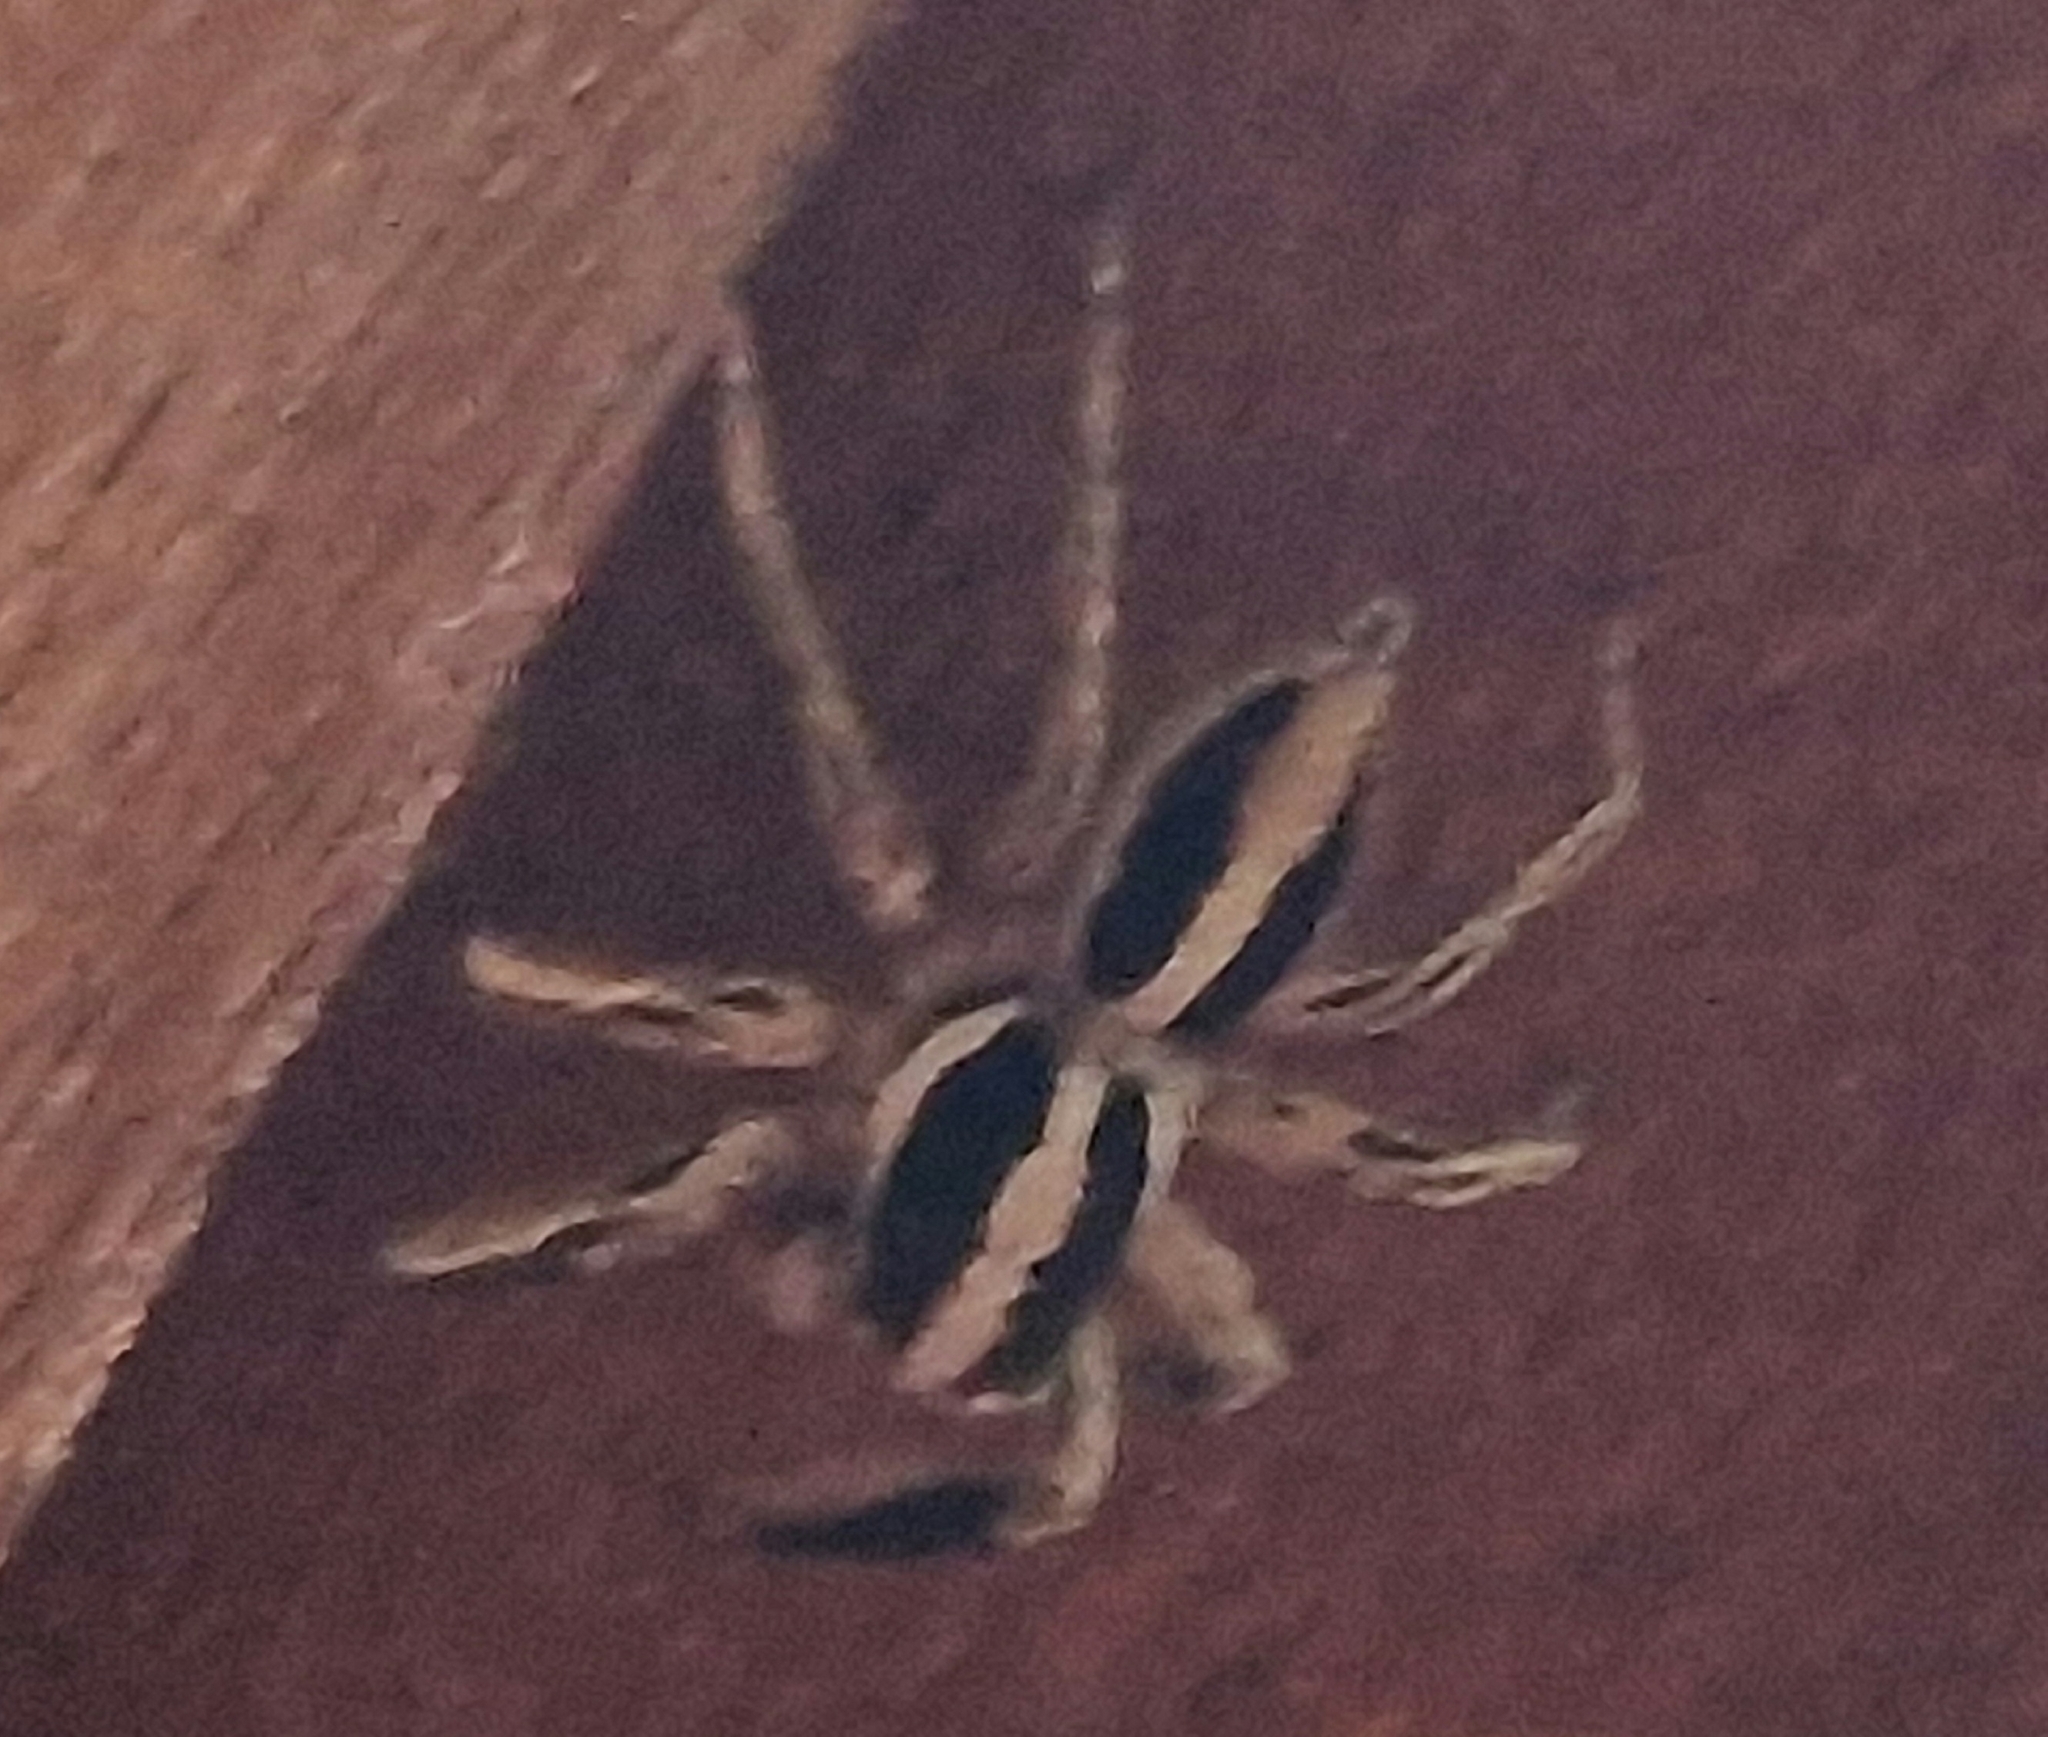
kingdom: Animalia
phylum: Arthropoda
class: Arachnida
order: Araneae
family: Salticidae
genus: Plexippus
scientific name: Plexippus paykulli
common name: Pantropical jumper
